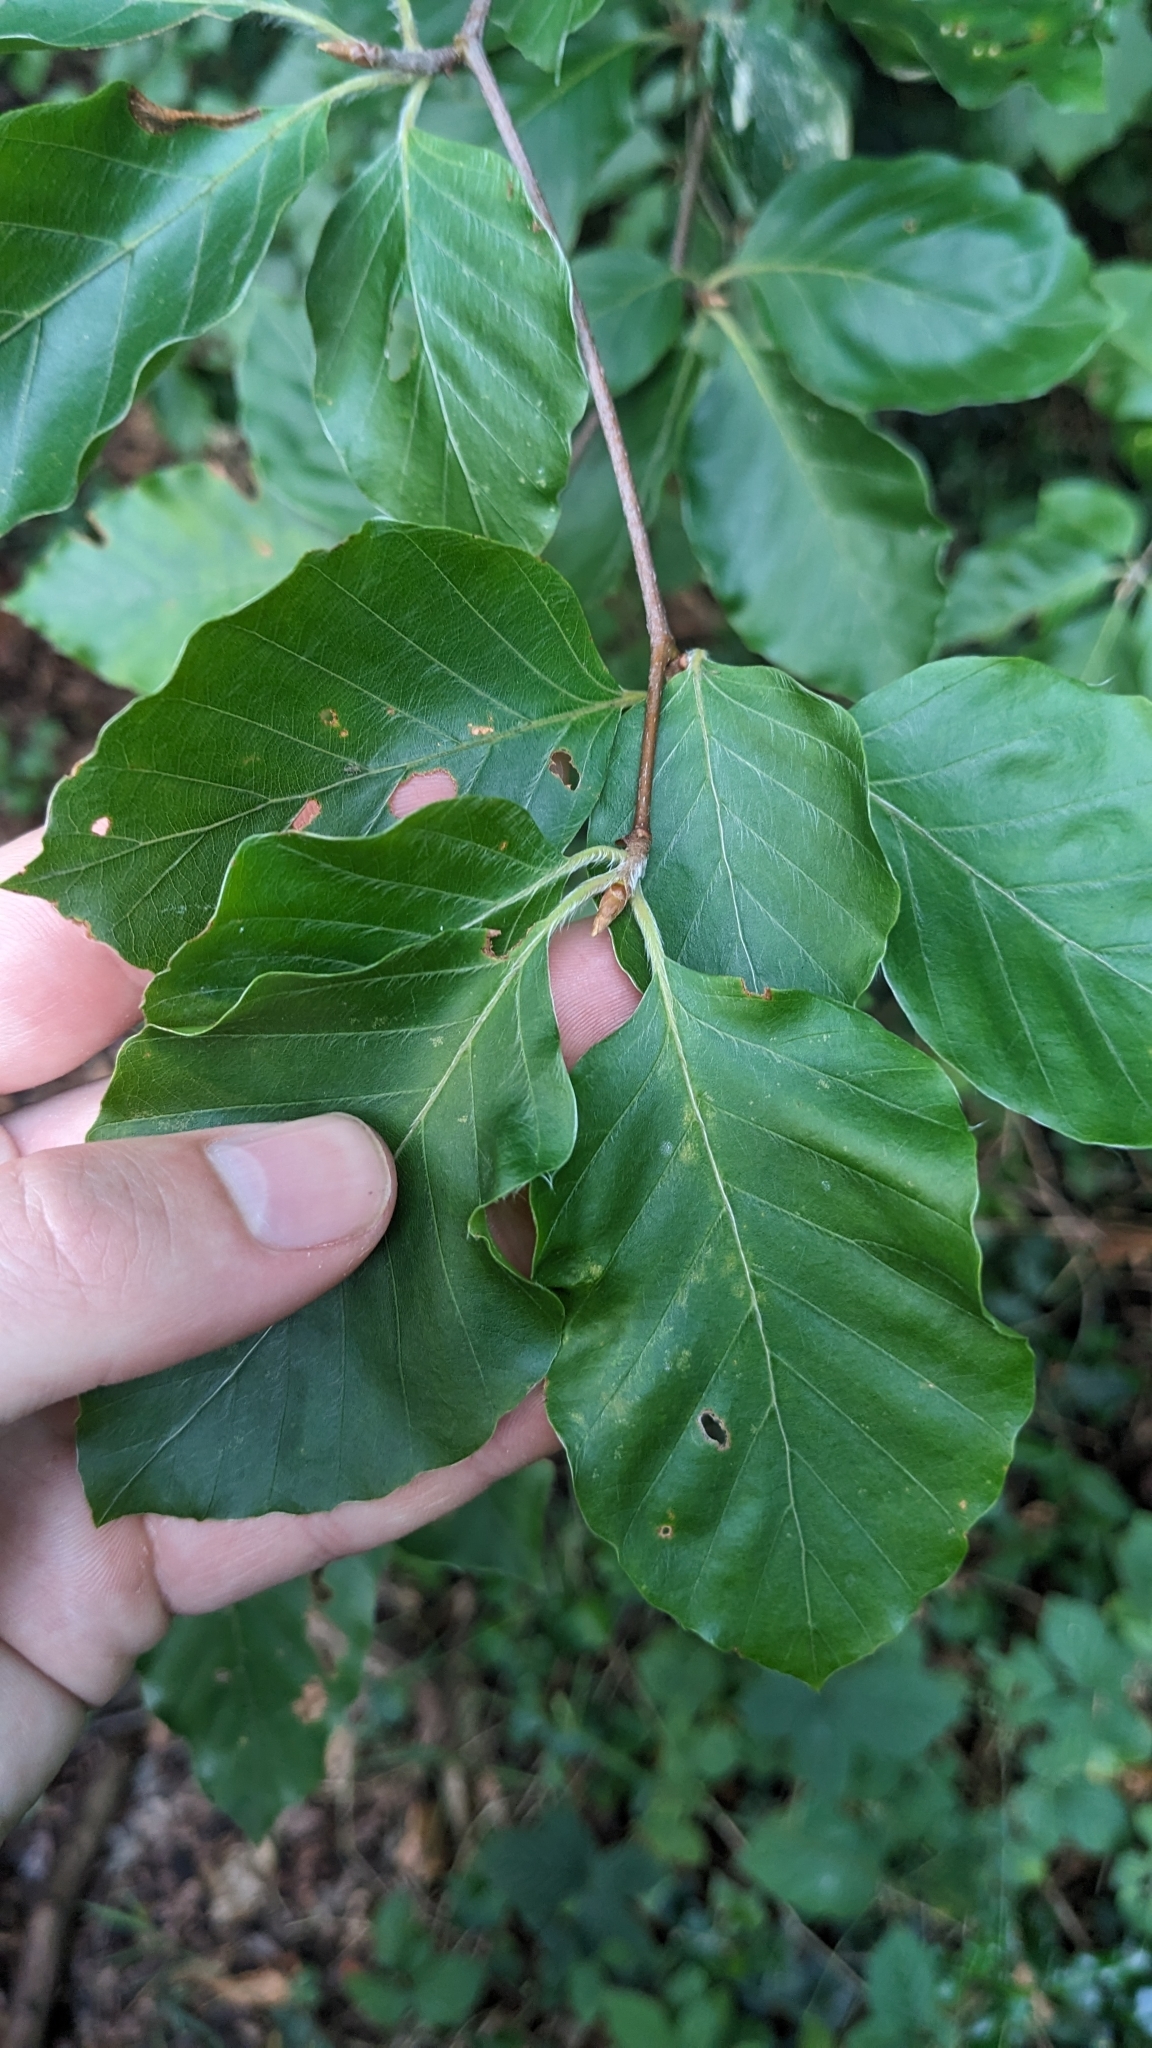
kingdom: Plantae
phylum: Tracheophyta
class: Magnoliopsida
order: Fagales
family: Fagaceae
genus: Fagus
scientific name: Fagus sylvatica
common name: Beech
